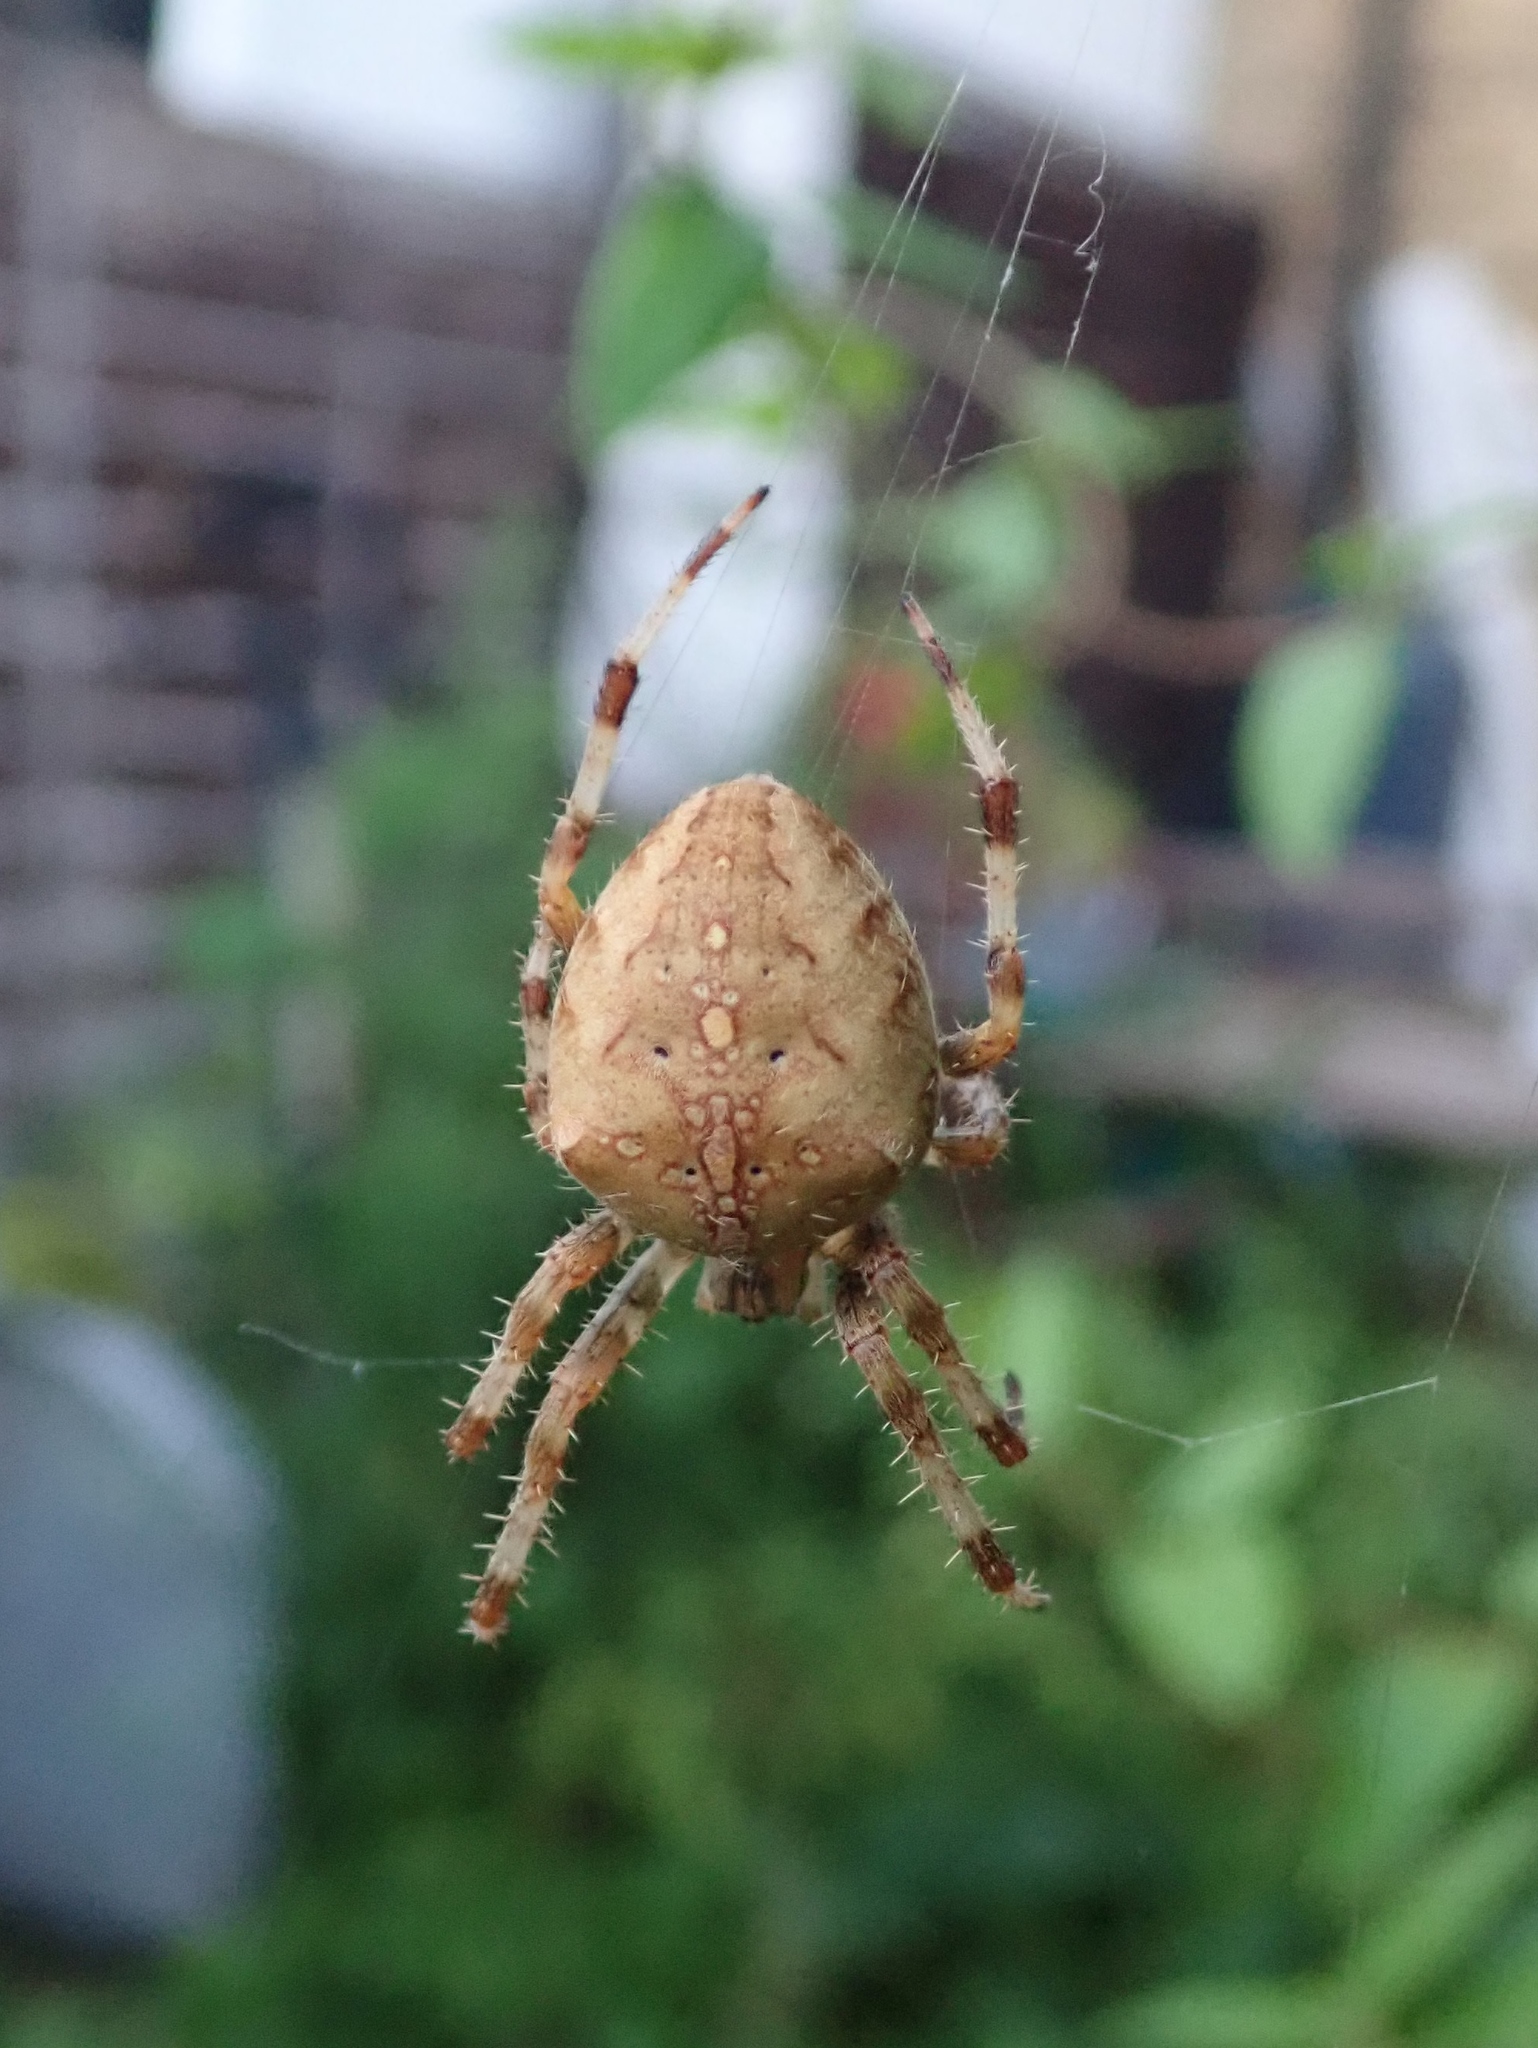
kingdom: Animalia
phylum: Arthropoda
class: Arachnida
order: Araneae
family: Araneidae
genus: Araneus
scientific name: Araneus diadematus
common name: Cross orbweaver
